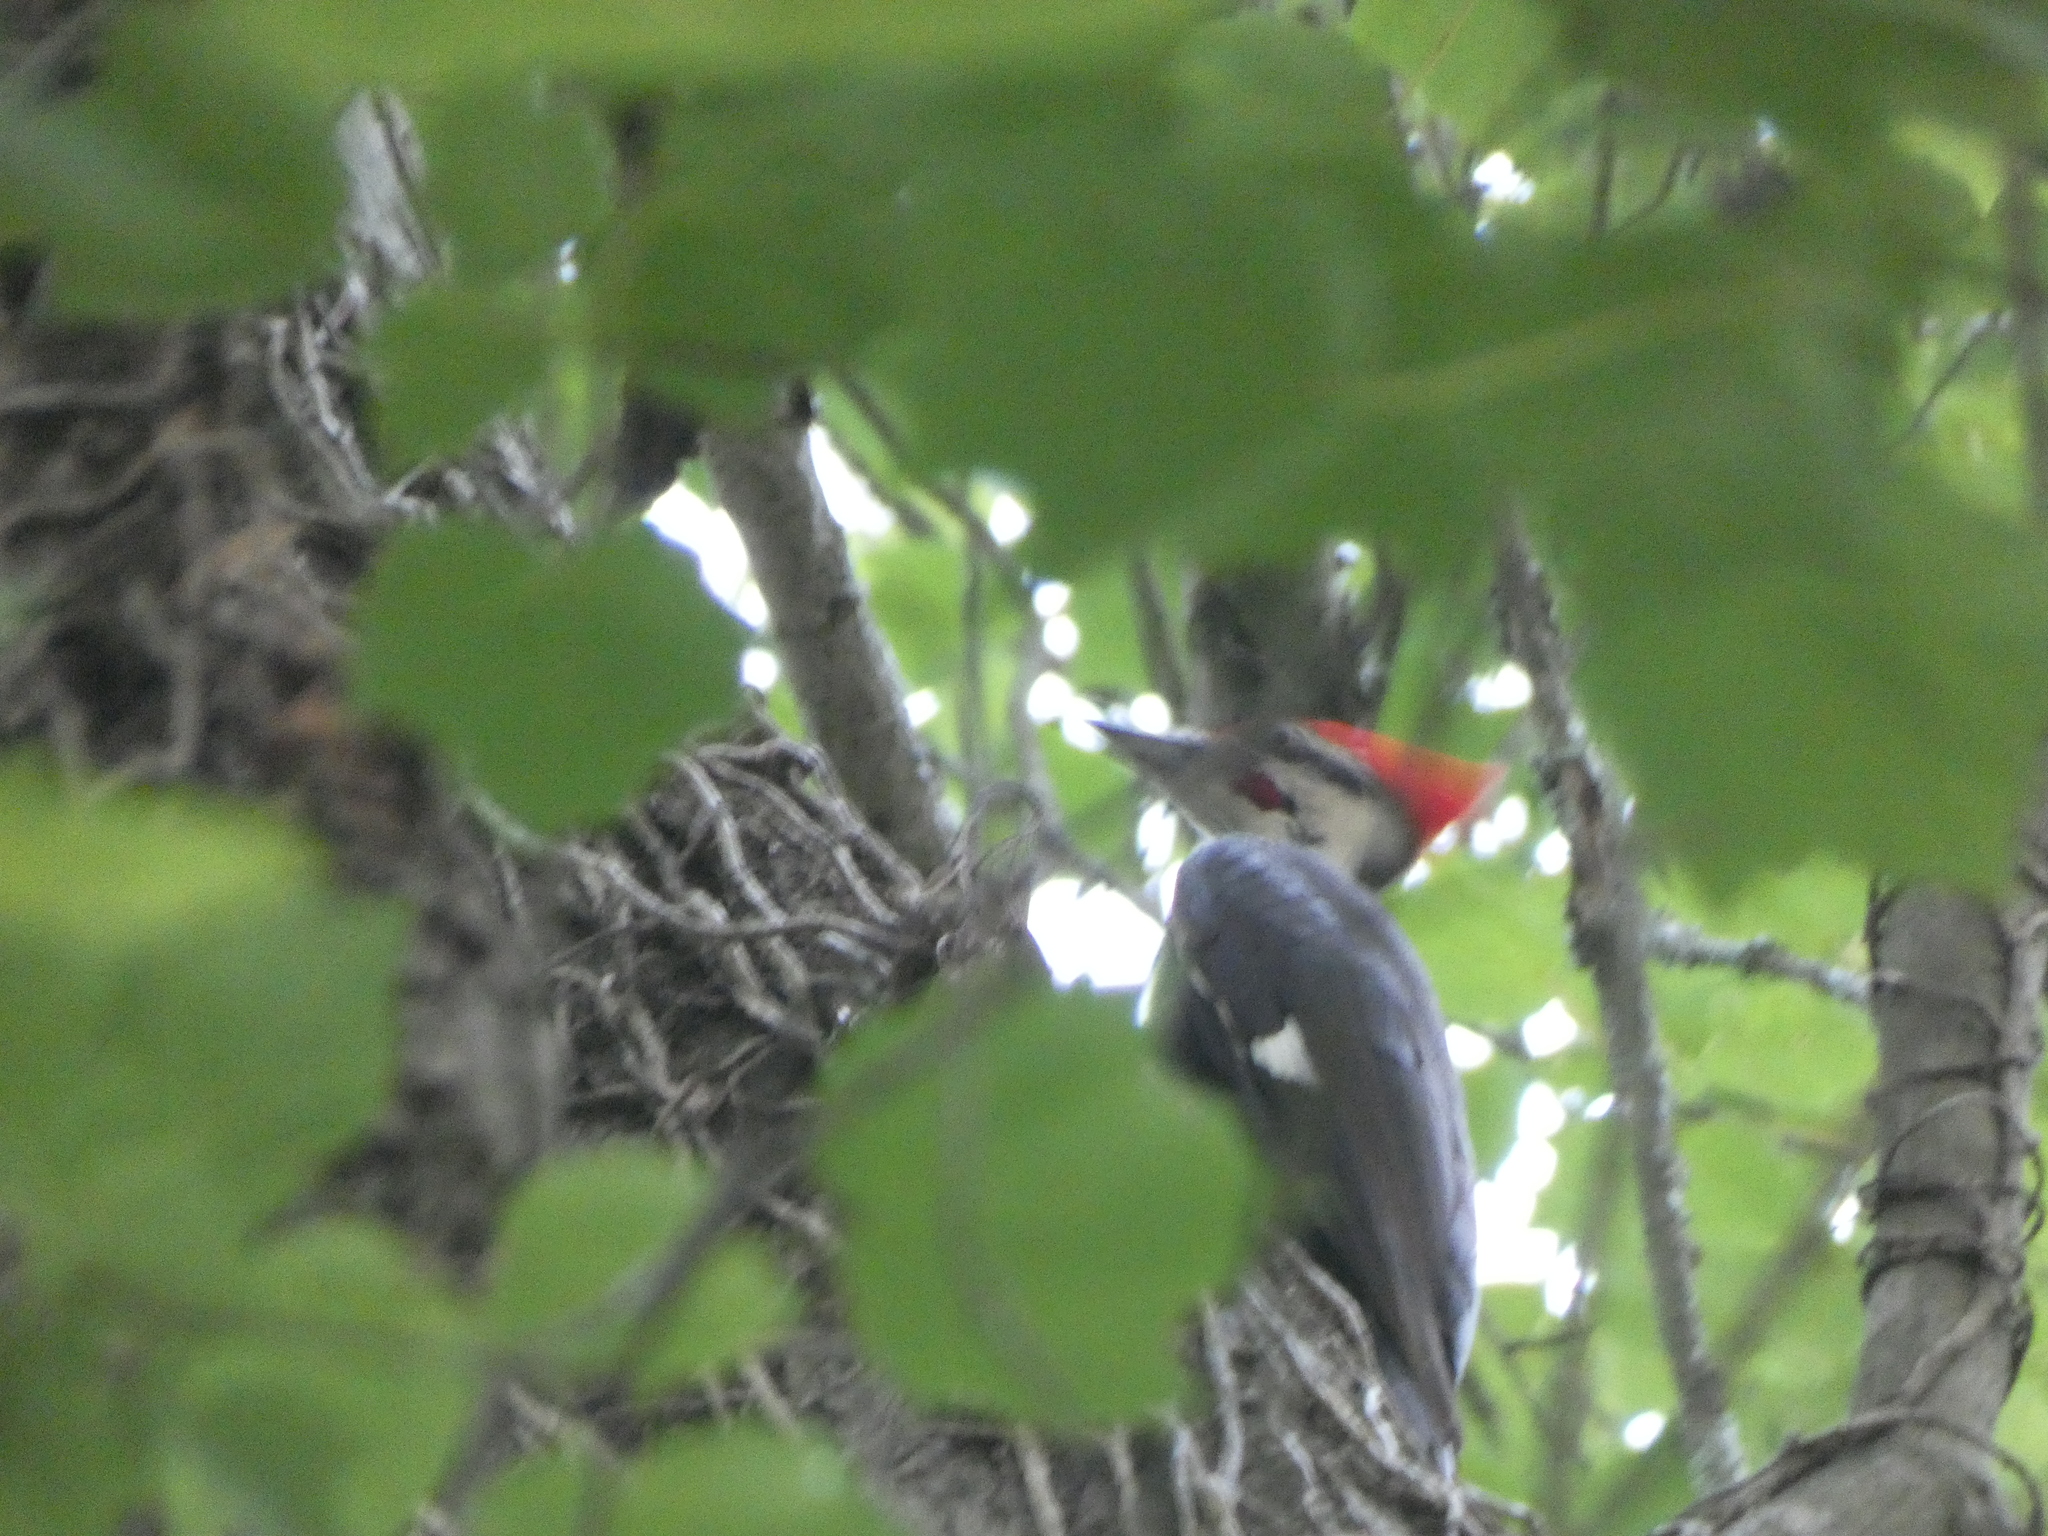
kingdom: Animalia
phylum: Chordata
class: Aves
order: Piciformes
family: Picidae
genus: Dryocopus
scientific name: Dryocopus pileatus
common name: Pileated woodpecker
